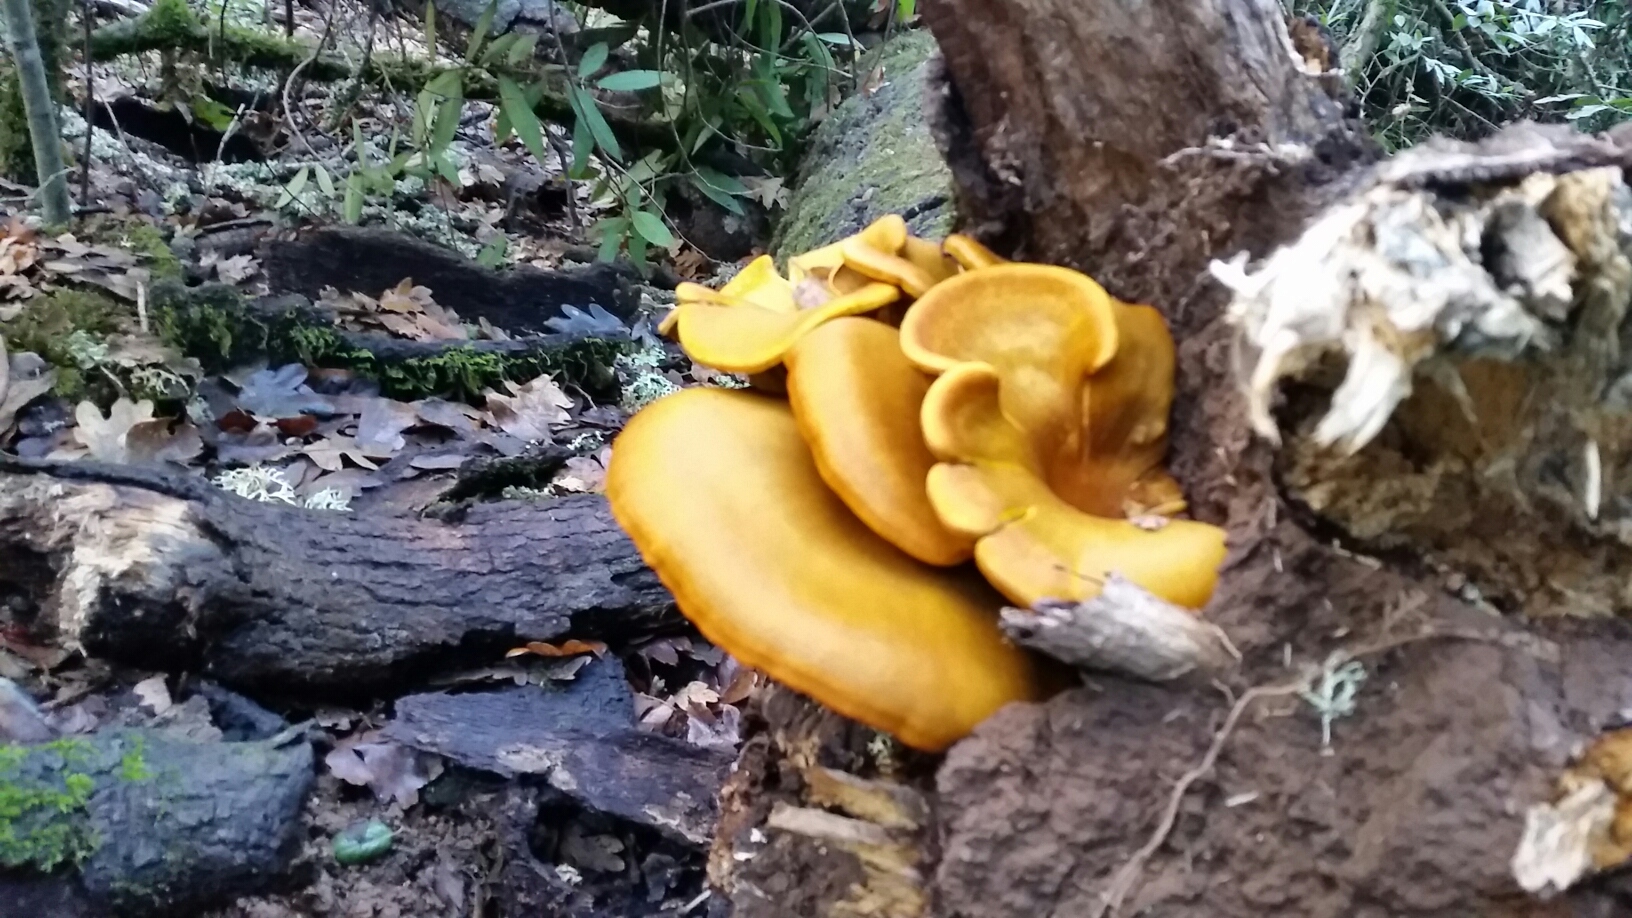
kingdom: Fungi
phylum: Basidiomycota
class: Agaricomycetes
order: Agaricales
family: Omphalotaceae
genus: Omphalotus
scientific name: Omphalotus olivascens
